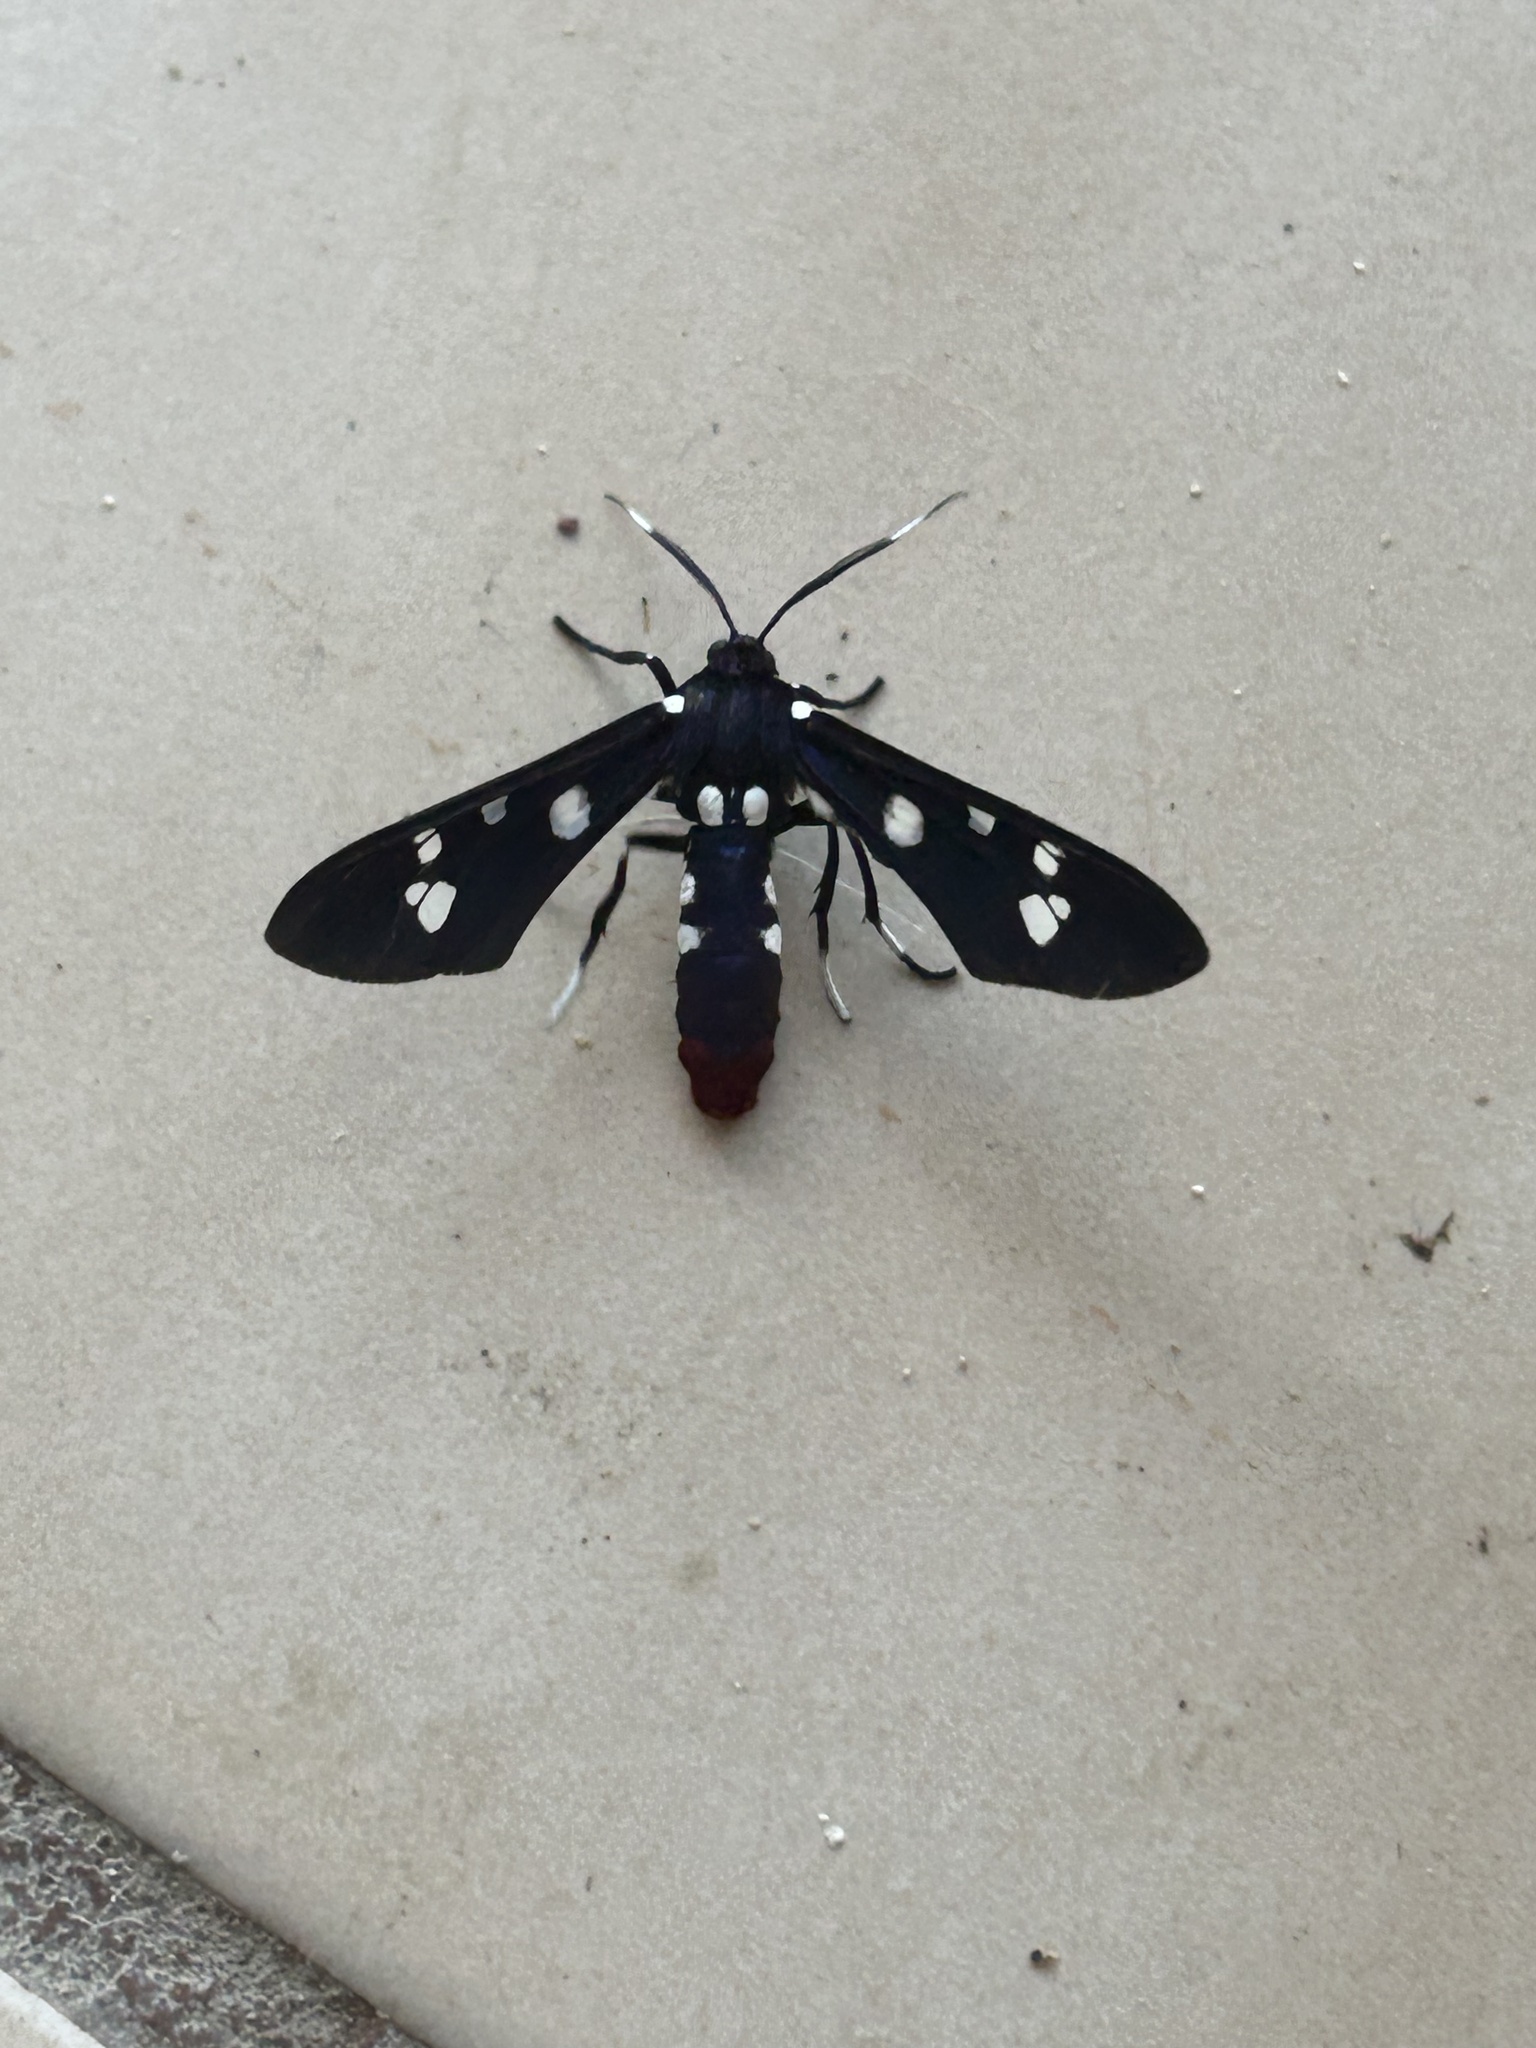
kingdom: Animalia
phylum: Arthropoda
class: Insecta
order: Lepidoptera
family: Erebidae
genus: Syntomeida
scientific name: Syntomeida epilais
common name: Polka-dot wasp moth
